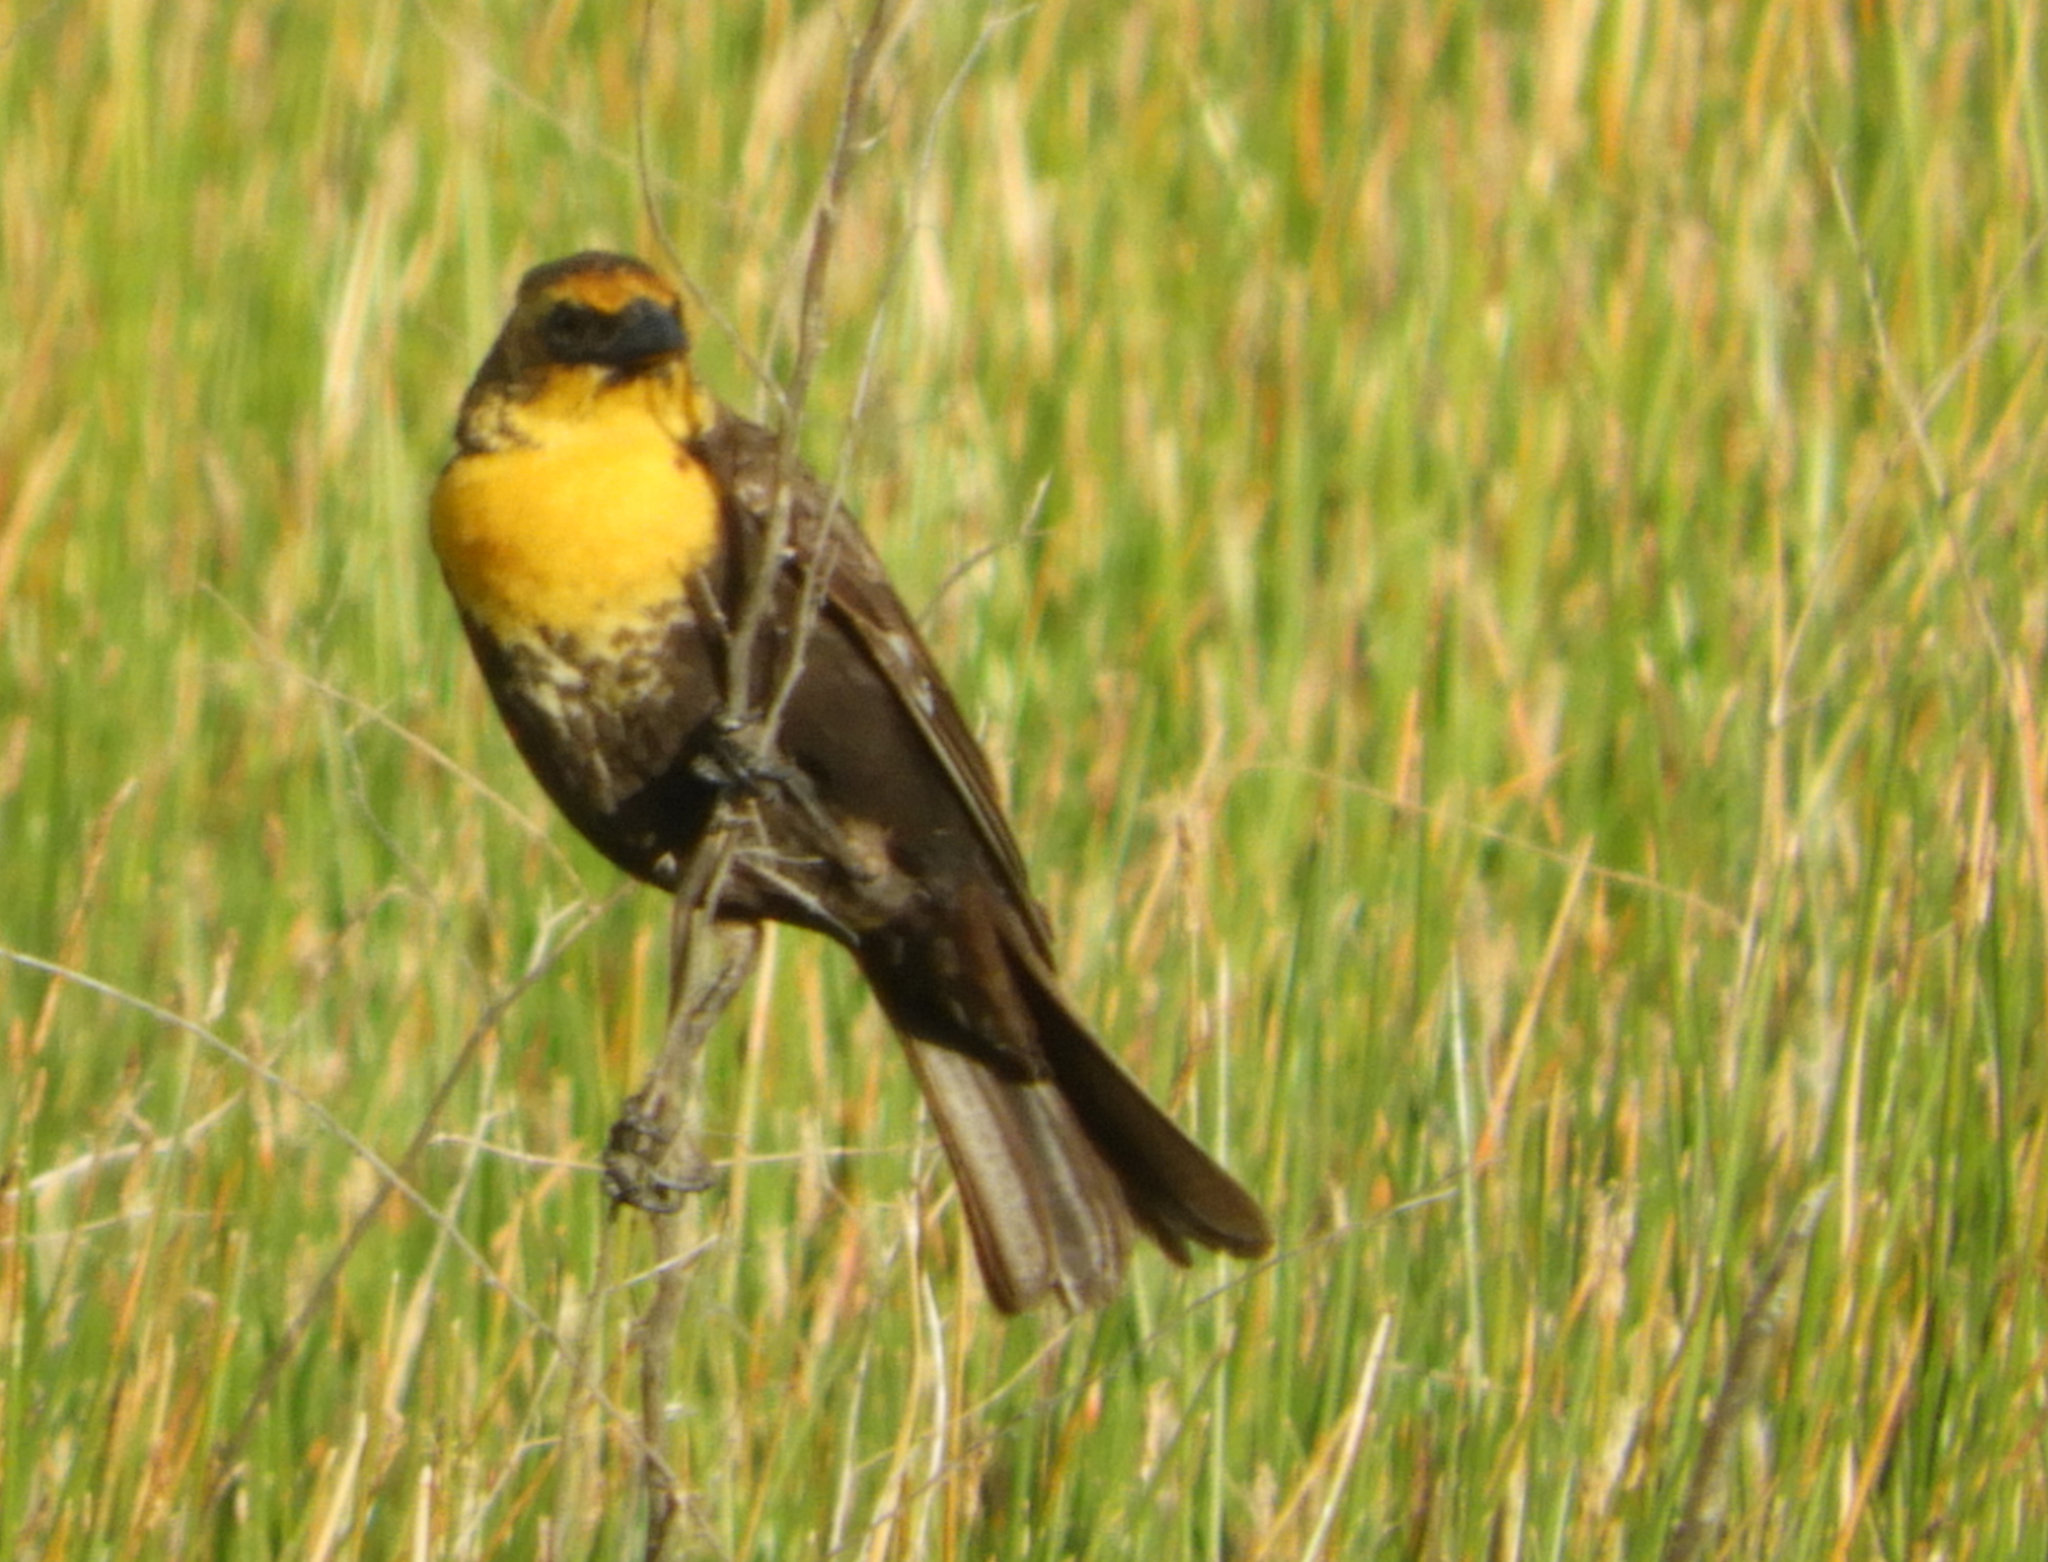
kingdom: Animalia
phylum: Chordata
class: Aves
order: Passeriformes
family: Icteridae
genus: Xanthocephalus
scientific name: Xanthocephalus xanthocephalus
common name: Yellow-headed blackbird
